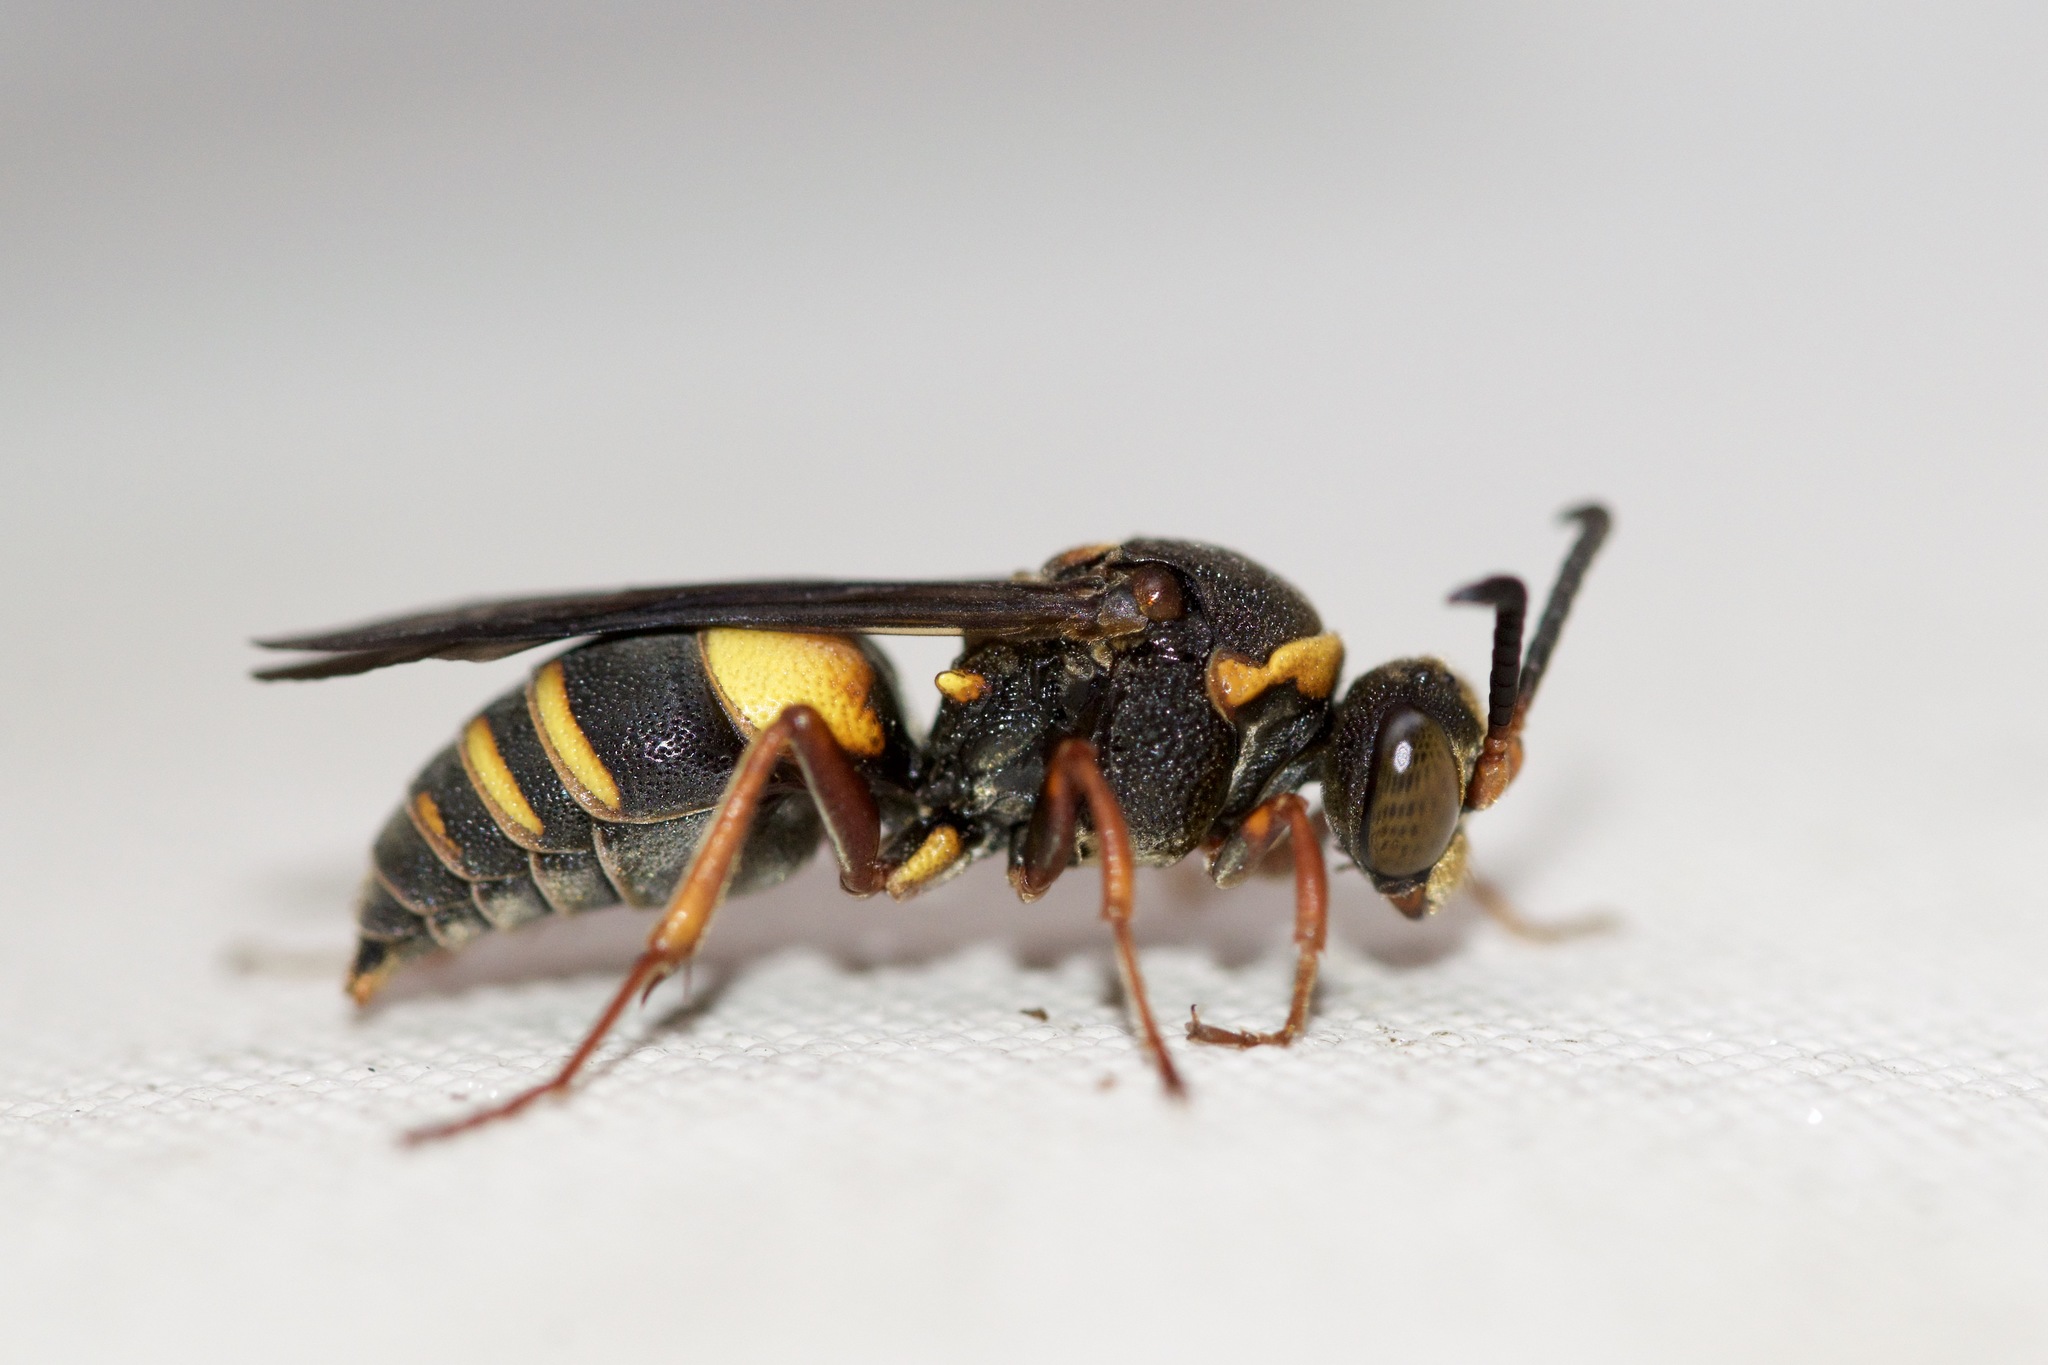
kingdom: Animalia
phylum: Arthropoda
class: Insecta
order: Hymenoptera
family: Crabronidae
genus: Nysson
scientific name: Nysson plagiatus
